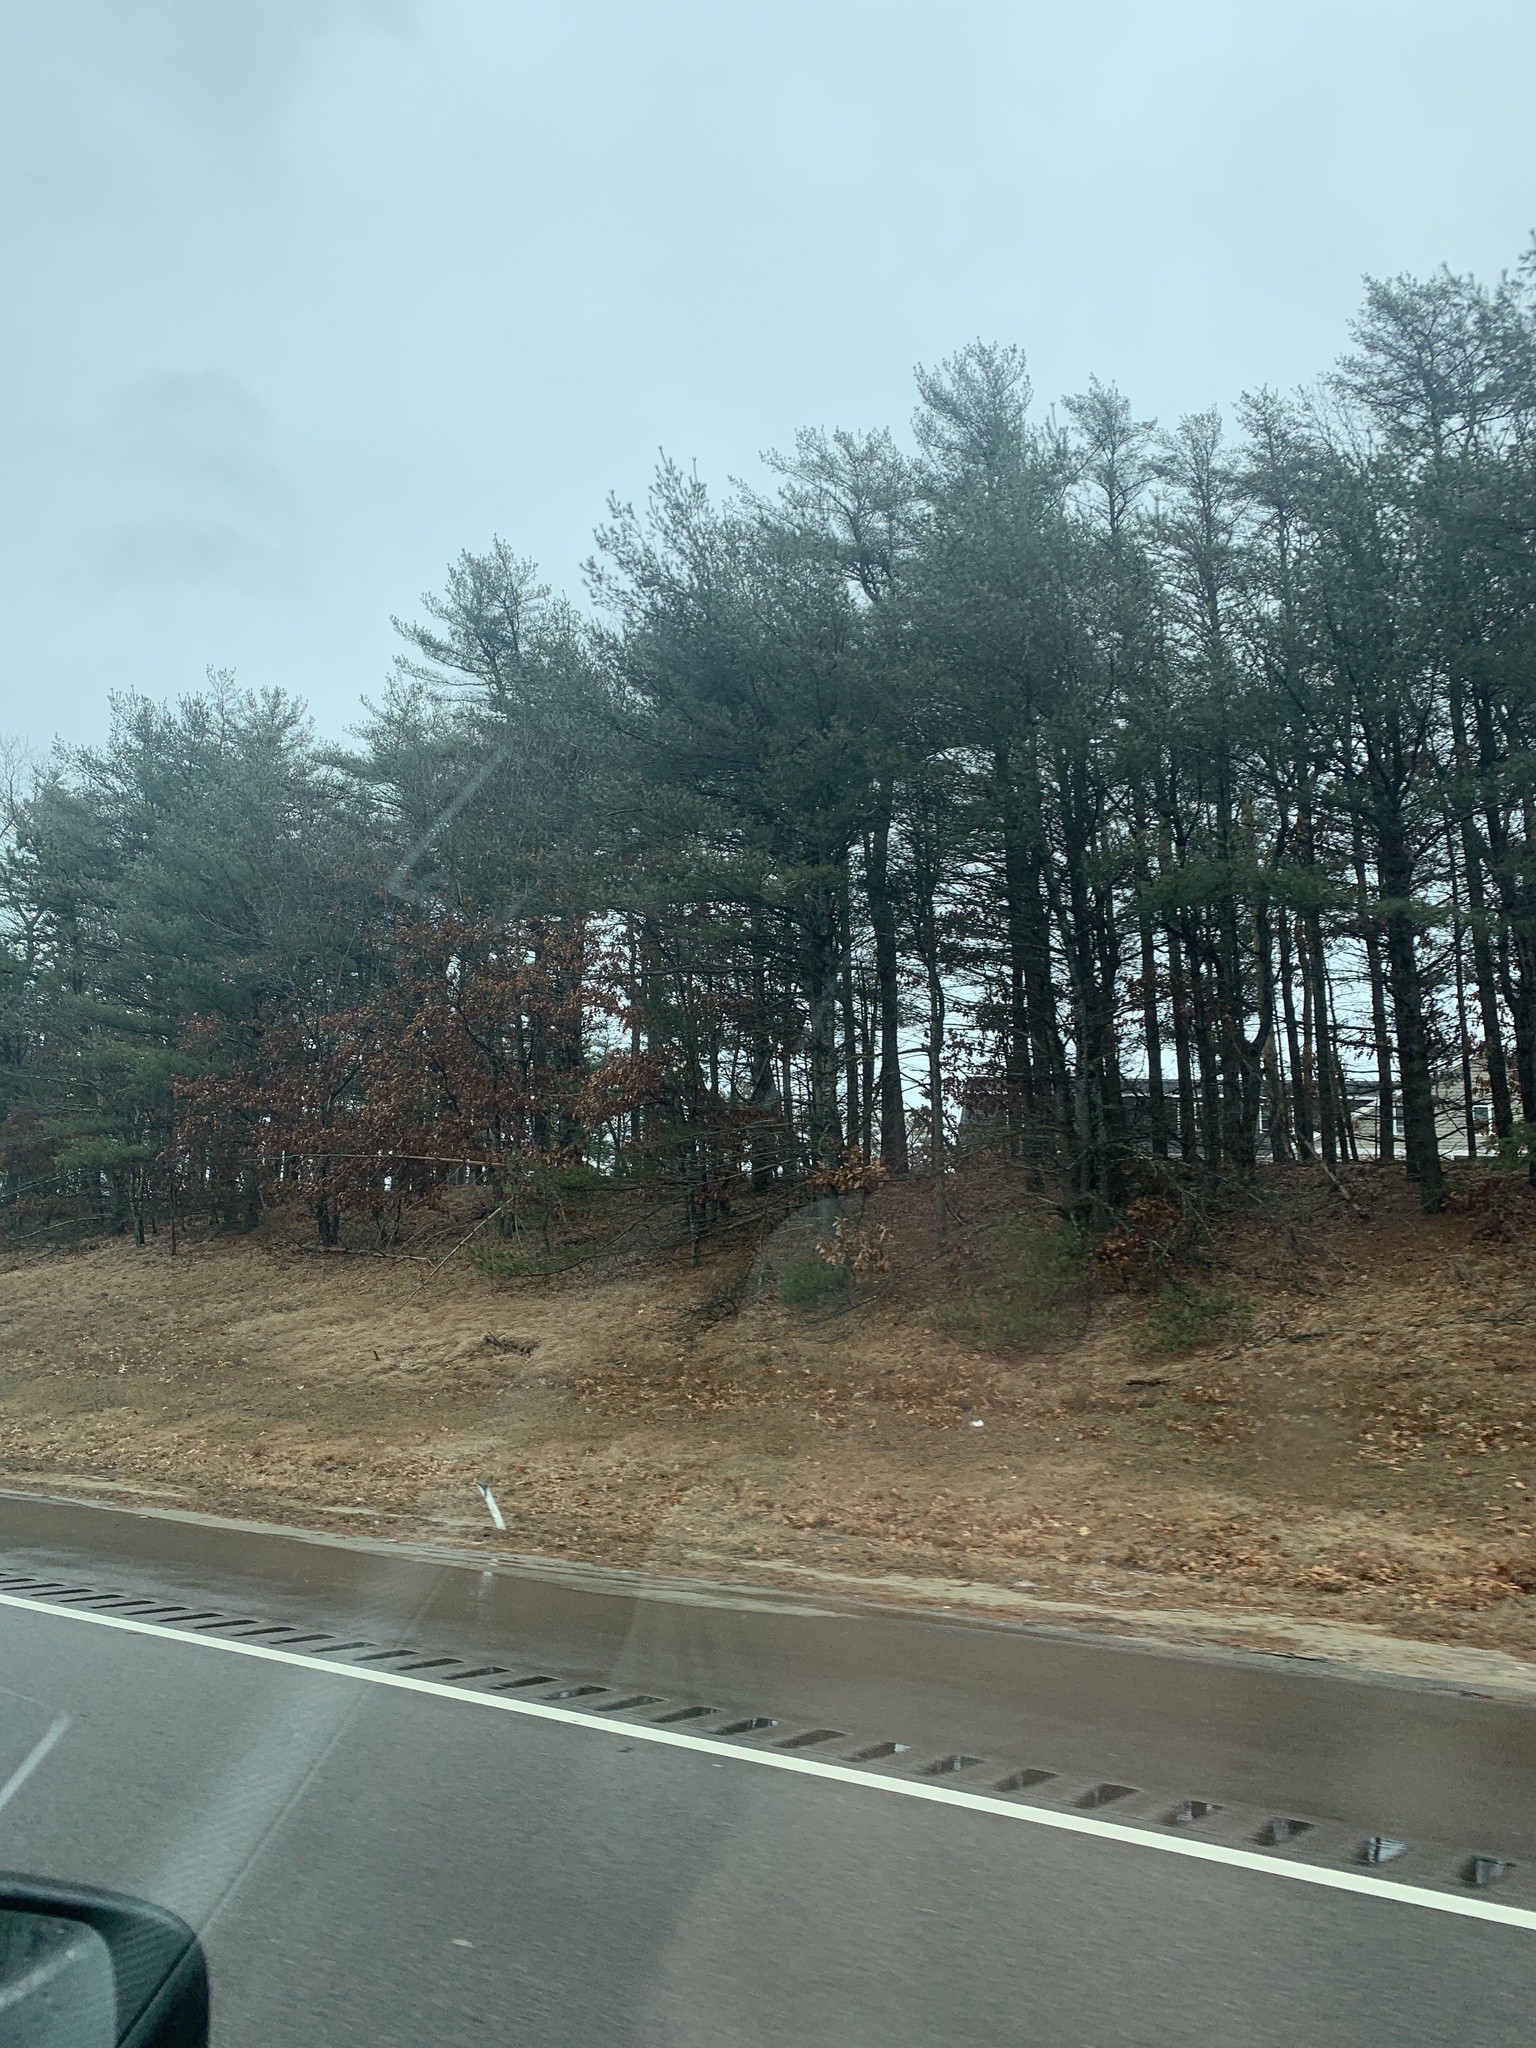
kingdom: Plantae
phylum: Tracheophyta
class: Pinopsida
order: Pinales
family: Pinaceae
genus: Pinus
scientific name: Pinus strobus
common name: Weymouth pine
